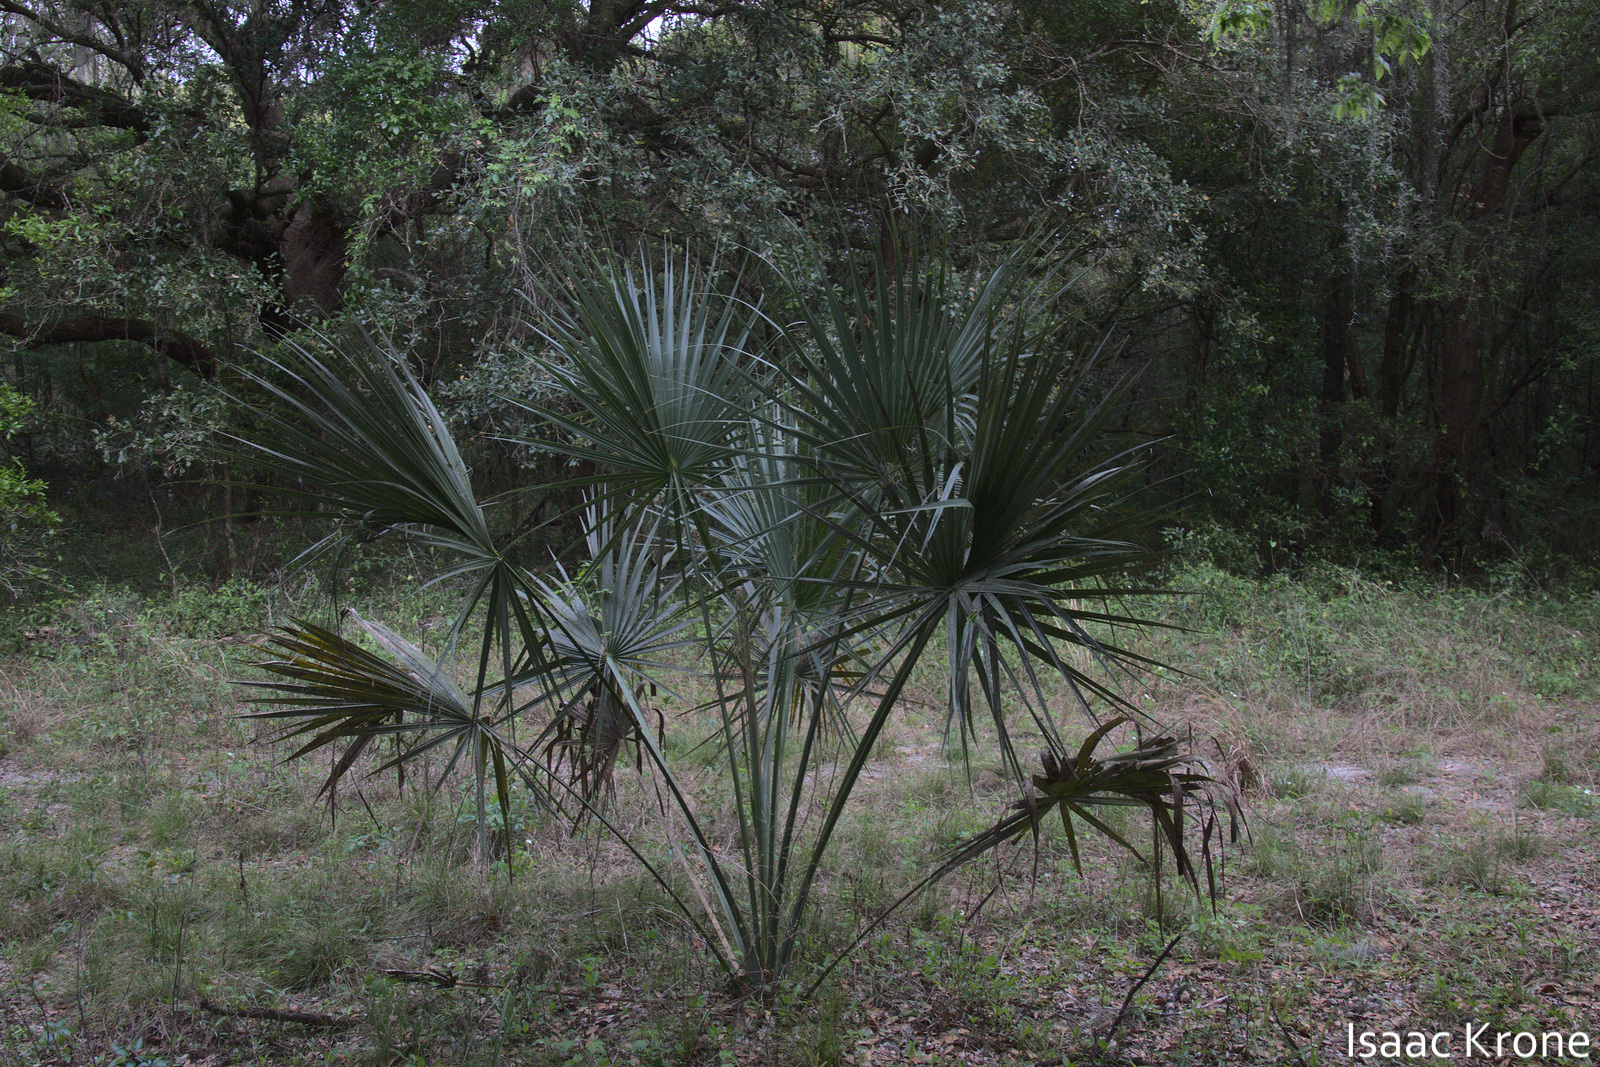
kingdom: Plantae
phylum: Tracheophyta
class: Liliopsida
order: Arecales
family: Arecaceae
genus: Sabal
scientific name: Sabal palmetto
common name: Blue palmetto
